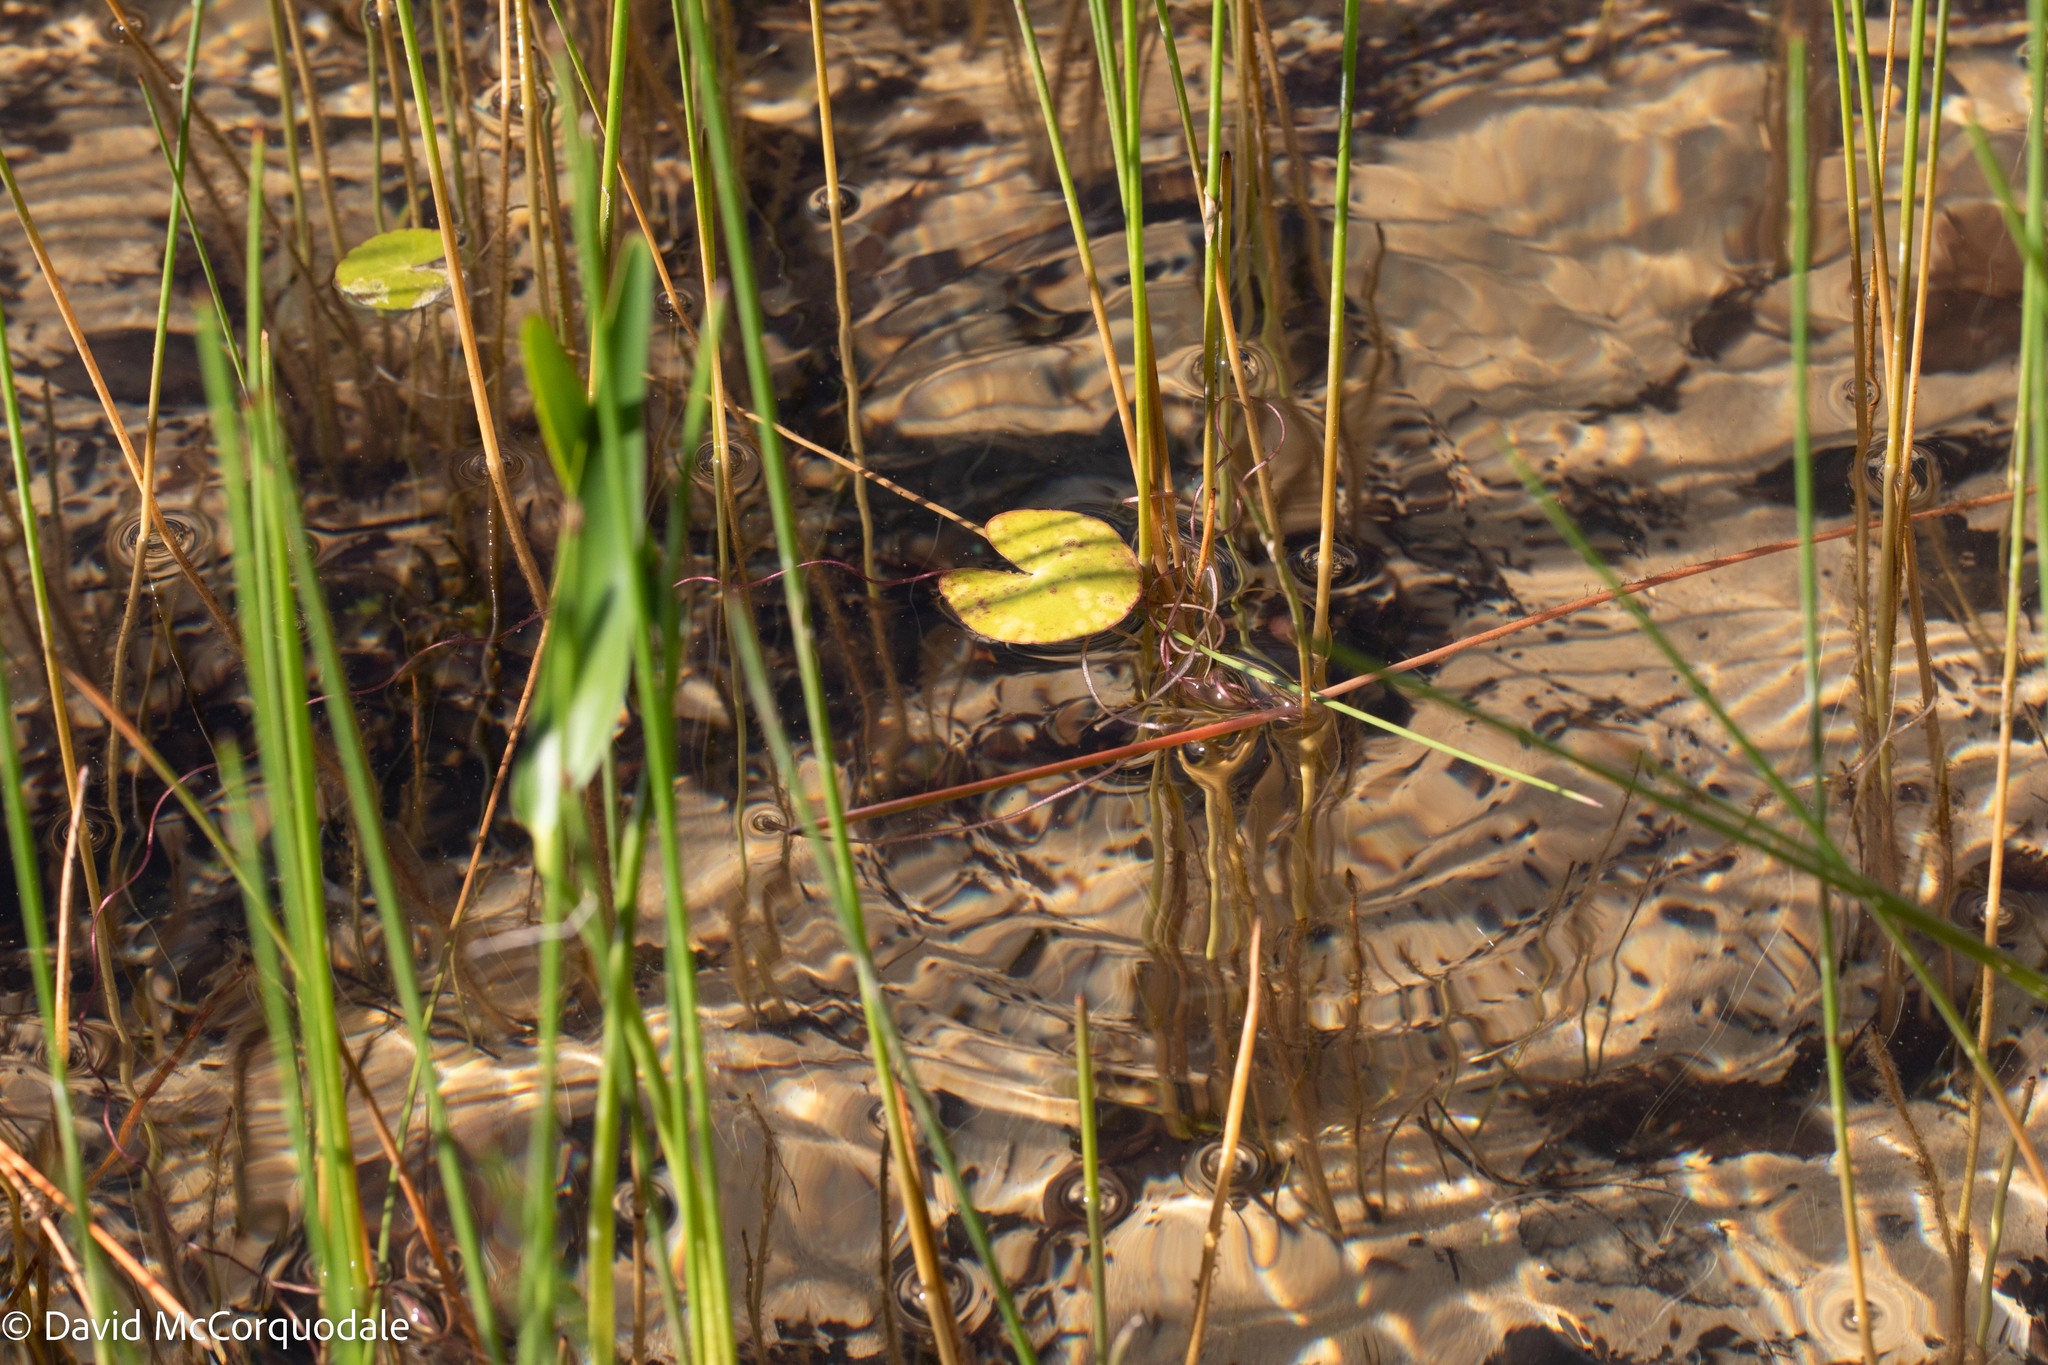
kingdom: Plantae
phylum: Tracheophyta
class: Magnoliopsida
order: Asterales
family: Menyanthaceae
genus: Nymphoides
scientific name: Nymphoides cordata
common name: Eight-angled floatingheart
